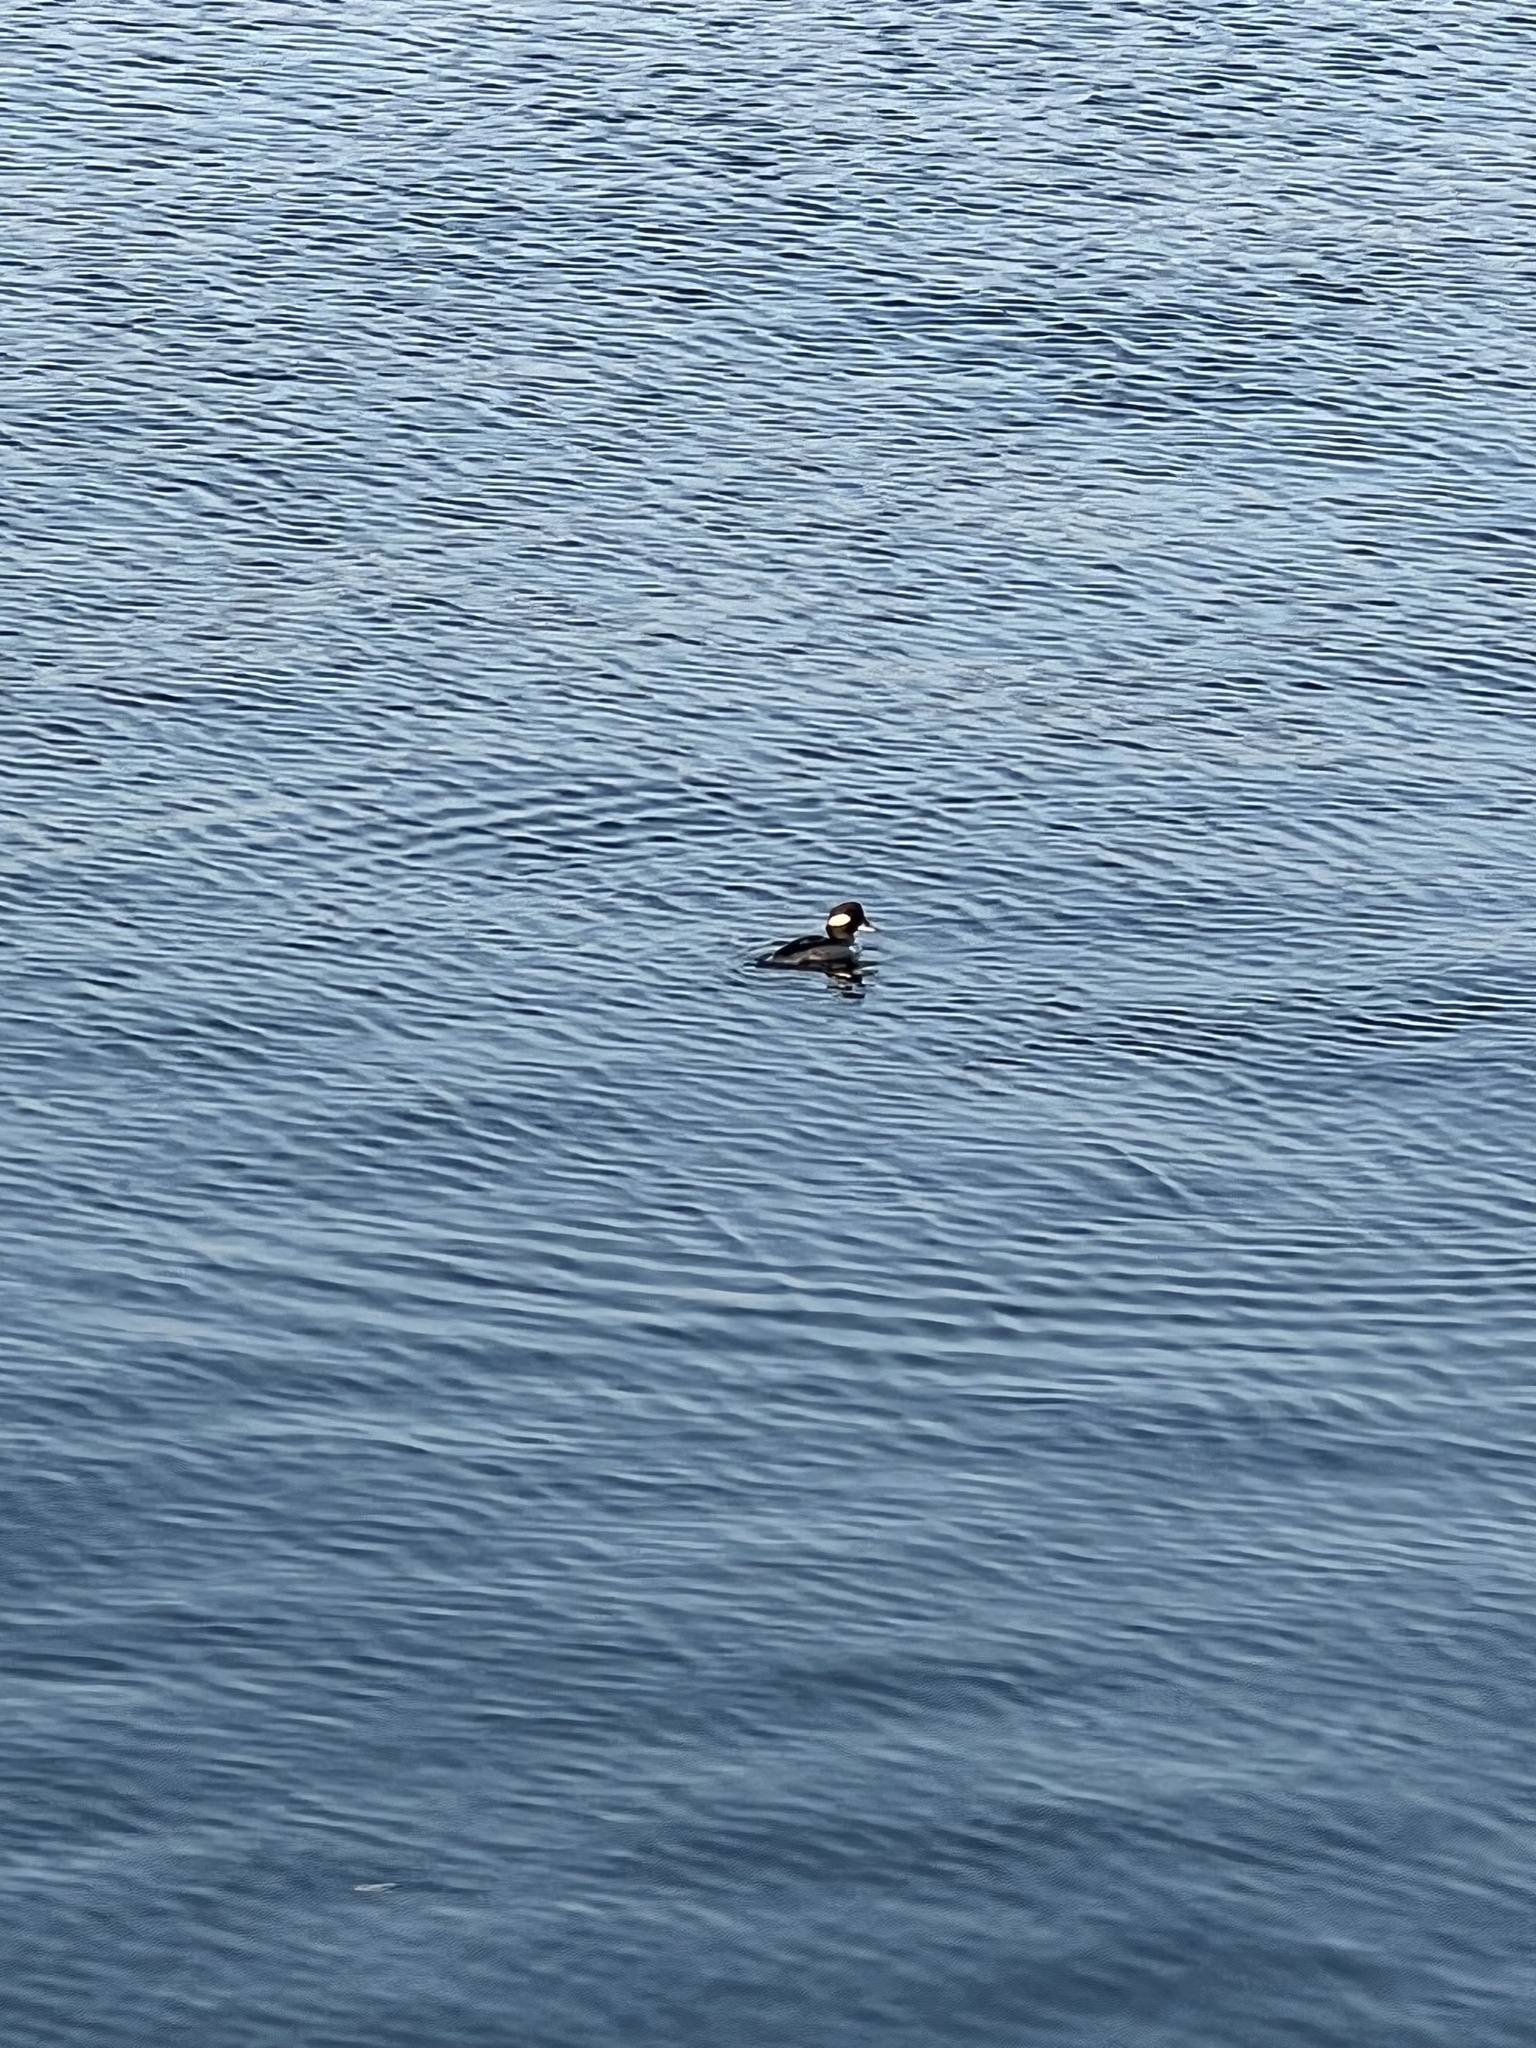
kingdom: Animalia
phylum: Chordata
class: Aves
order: Anseriformes
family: Anatidae
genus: Bucephala
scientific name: Bucephala albeola
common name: Bufflehead
